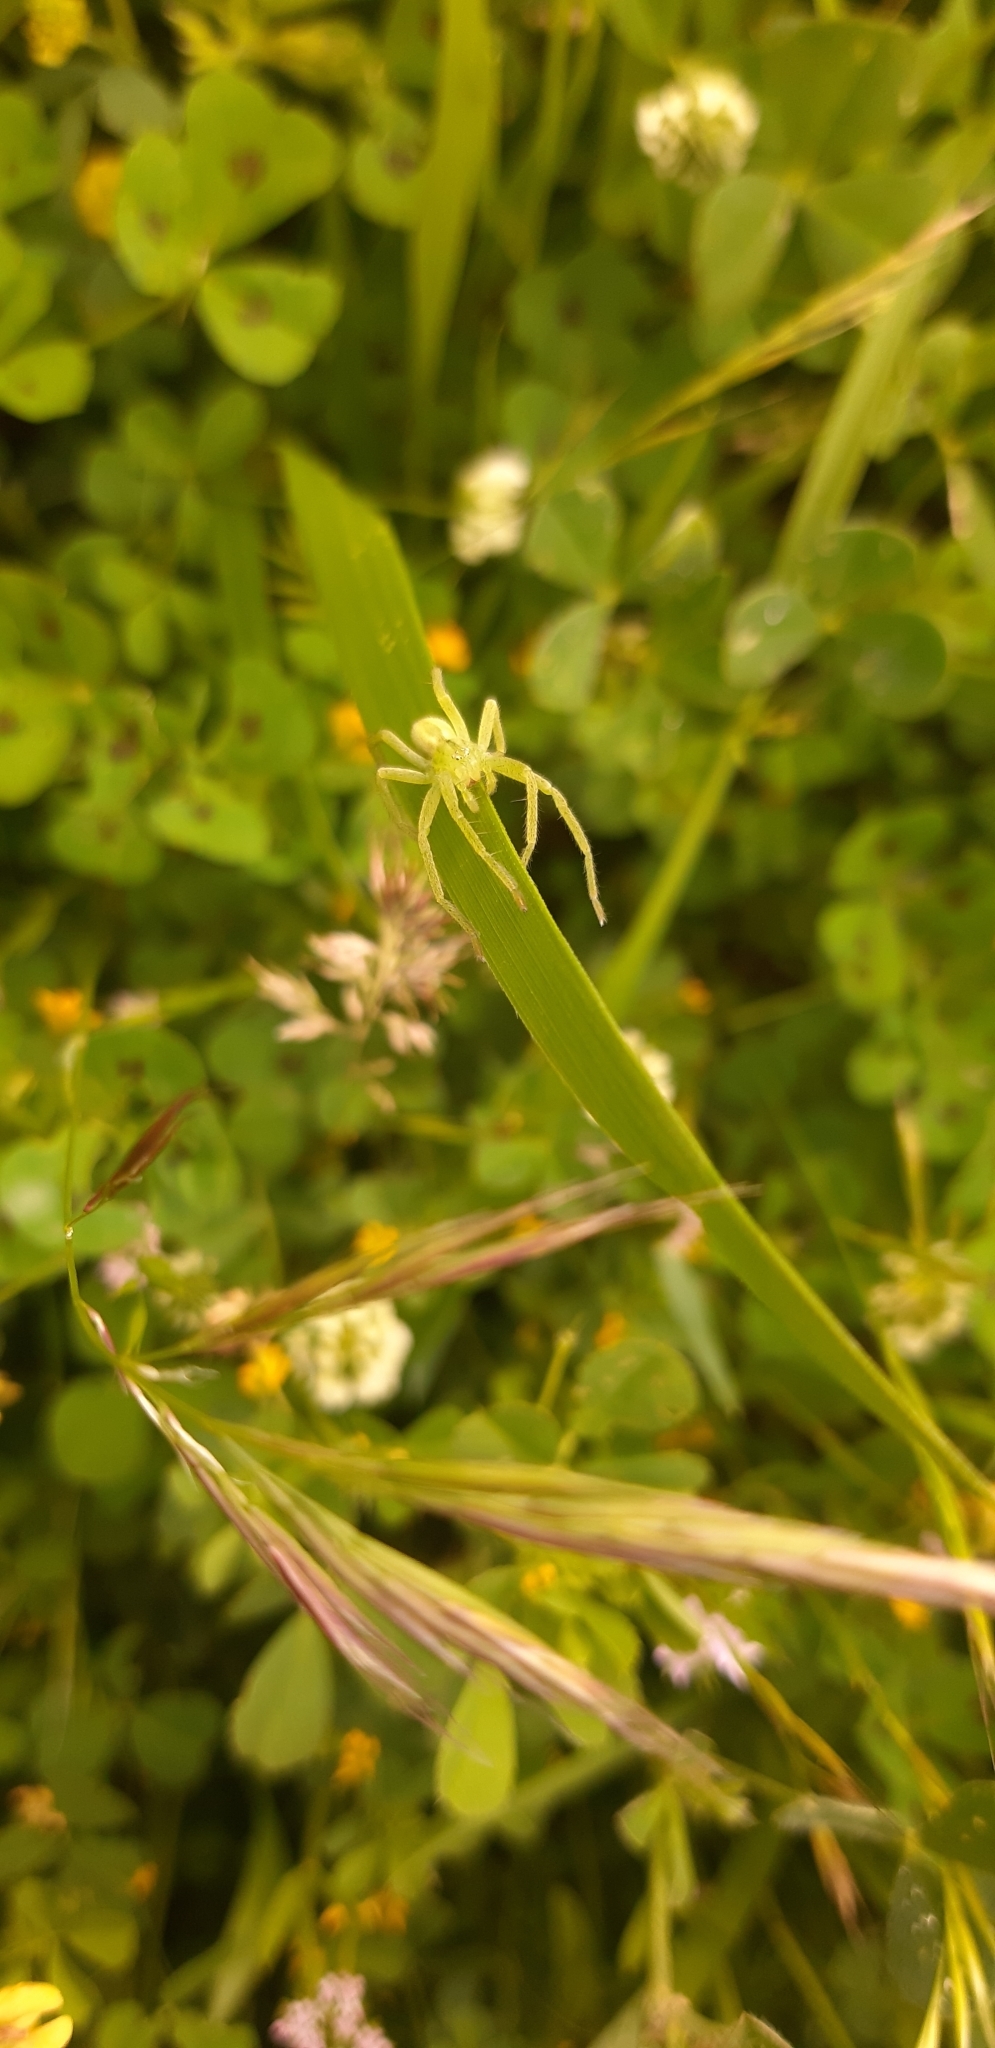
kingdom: Animalia
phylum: Arthropoda
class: Arachnida
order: Araneae
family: Sparassidae
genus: Micrommata
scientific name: Micrommata ligurina
